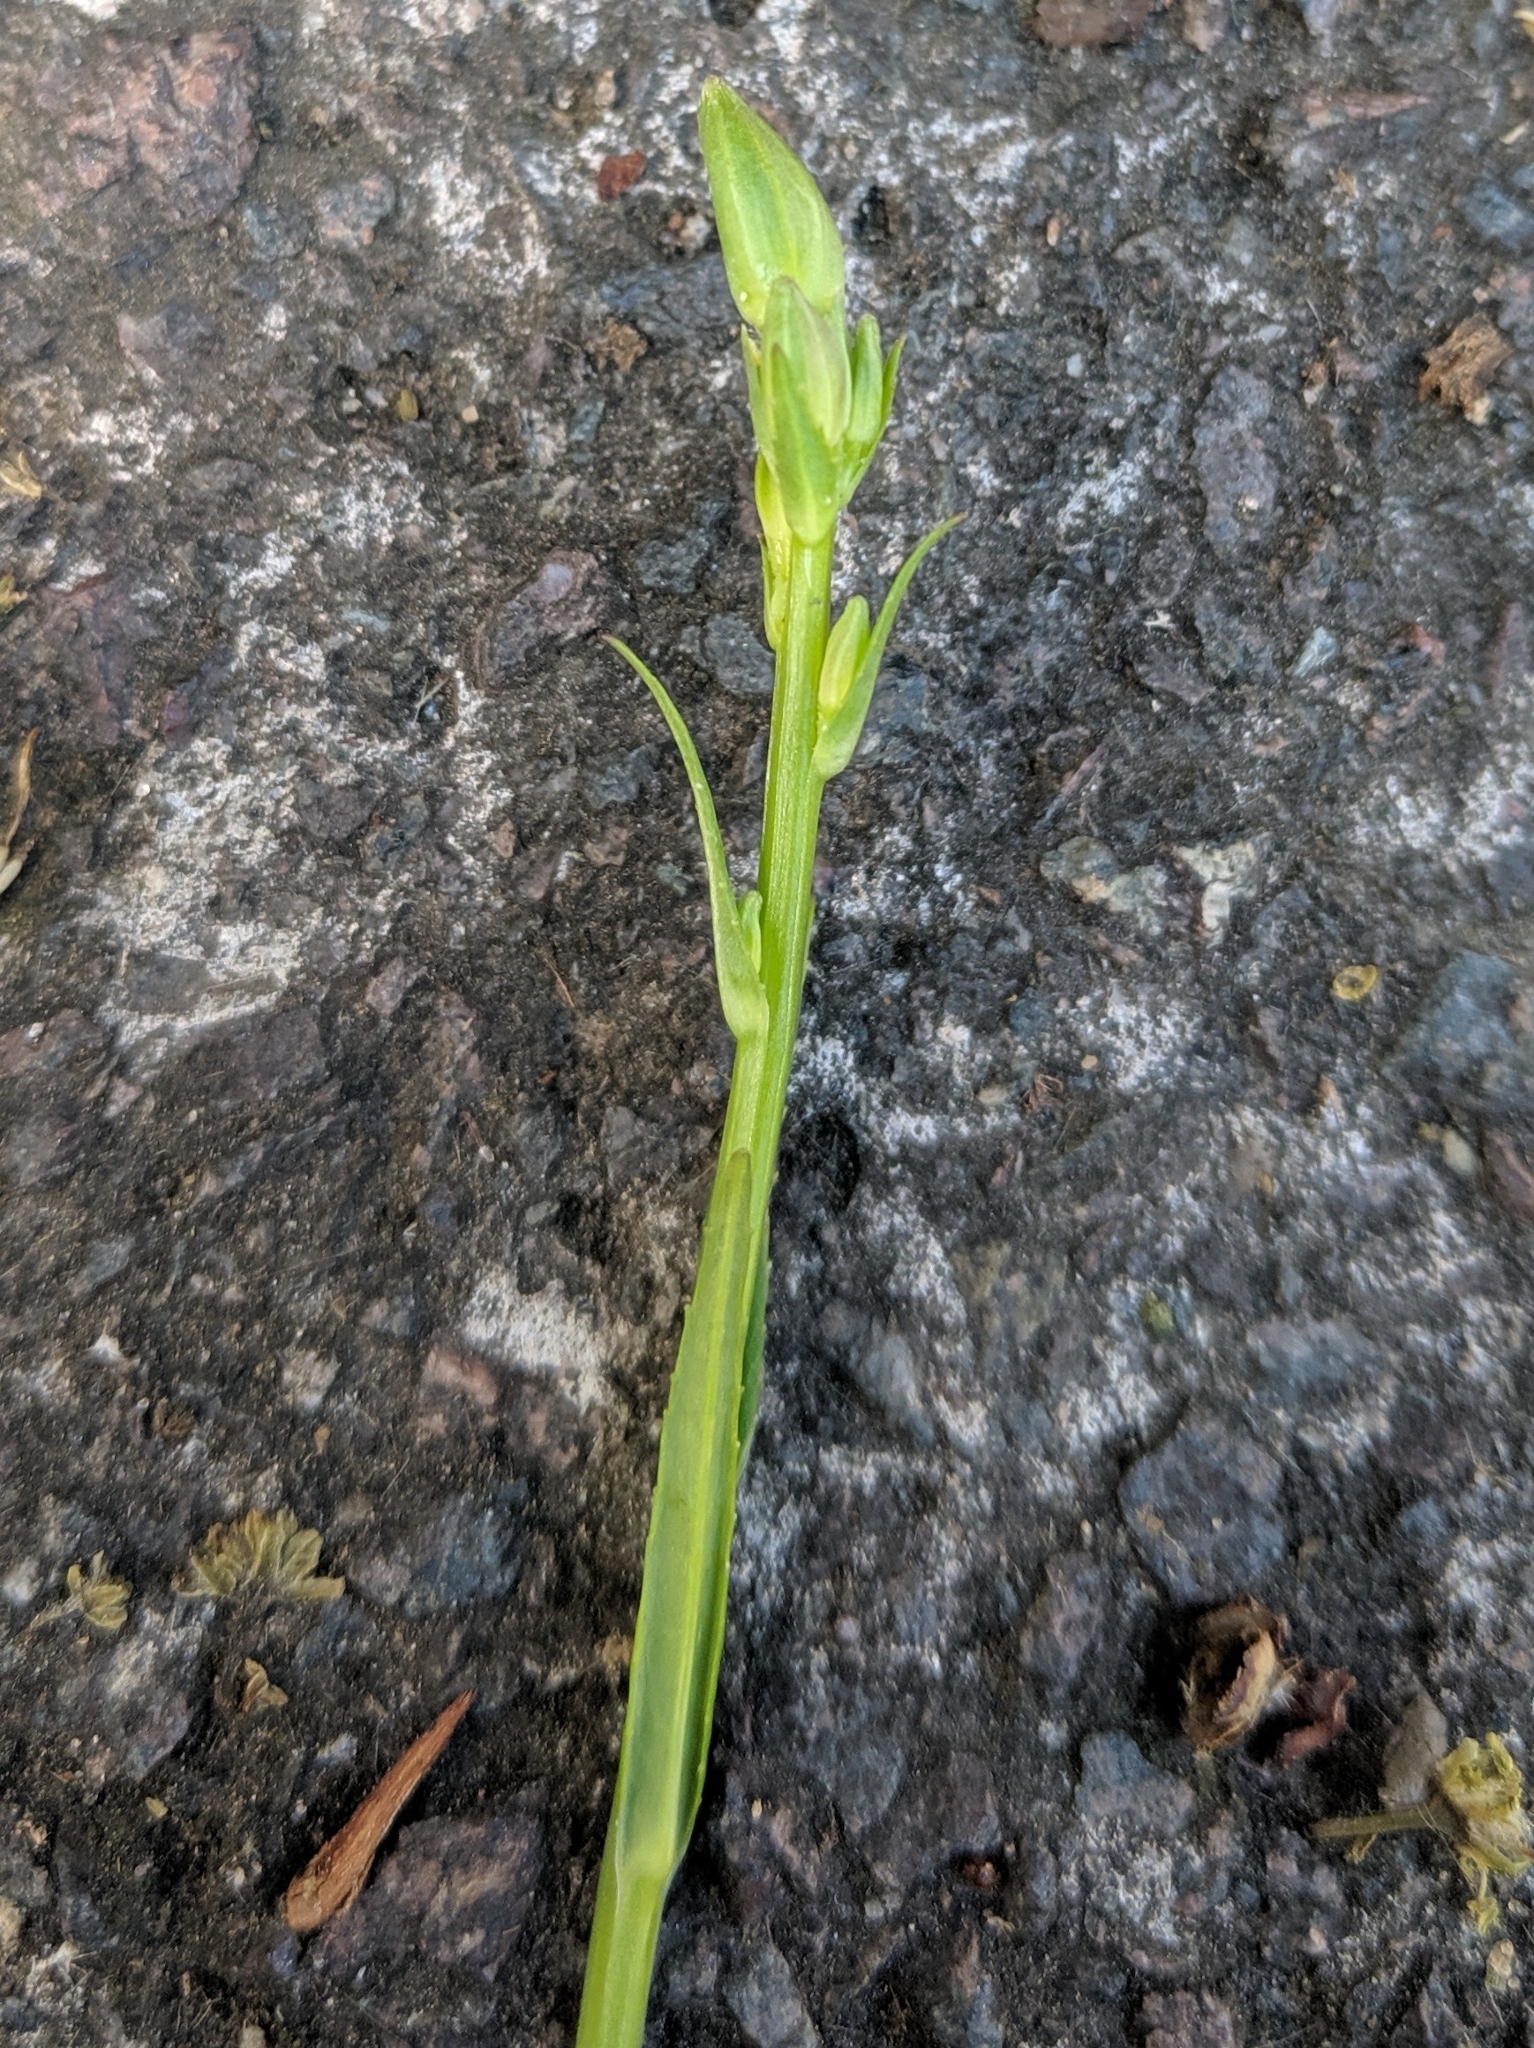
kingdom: Plantae
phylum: Tracheophyta
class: Magnoliopsida
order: Asterales
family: Campanulaceae
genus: Campanula
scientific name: Campanula persicifolia
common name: Peach-leaved bellflower
